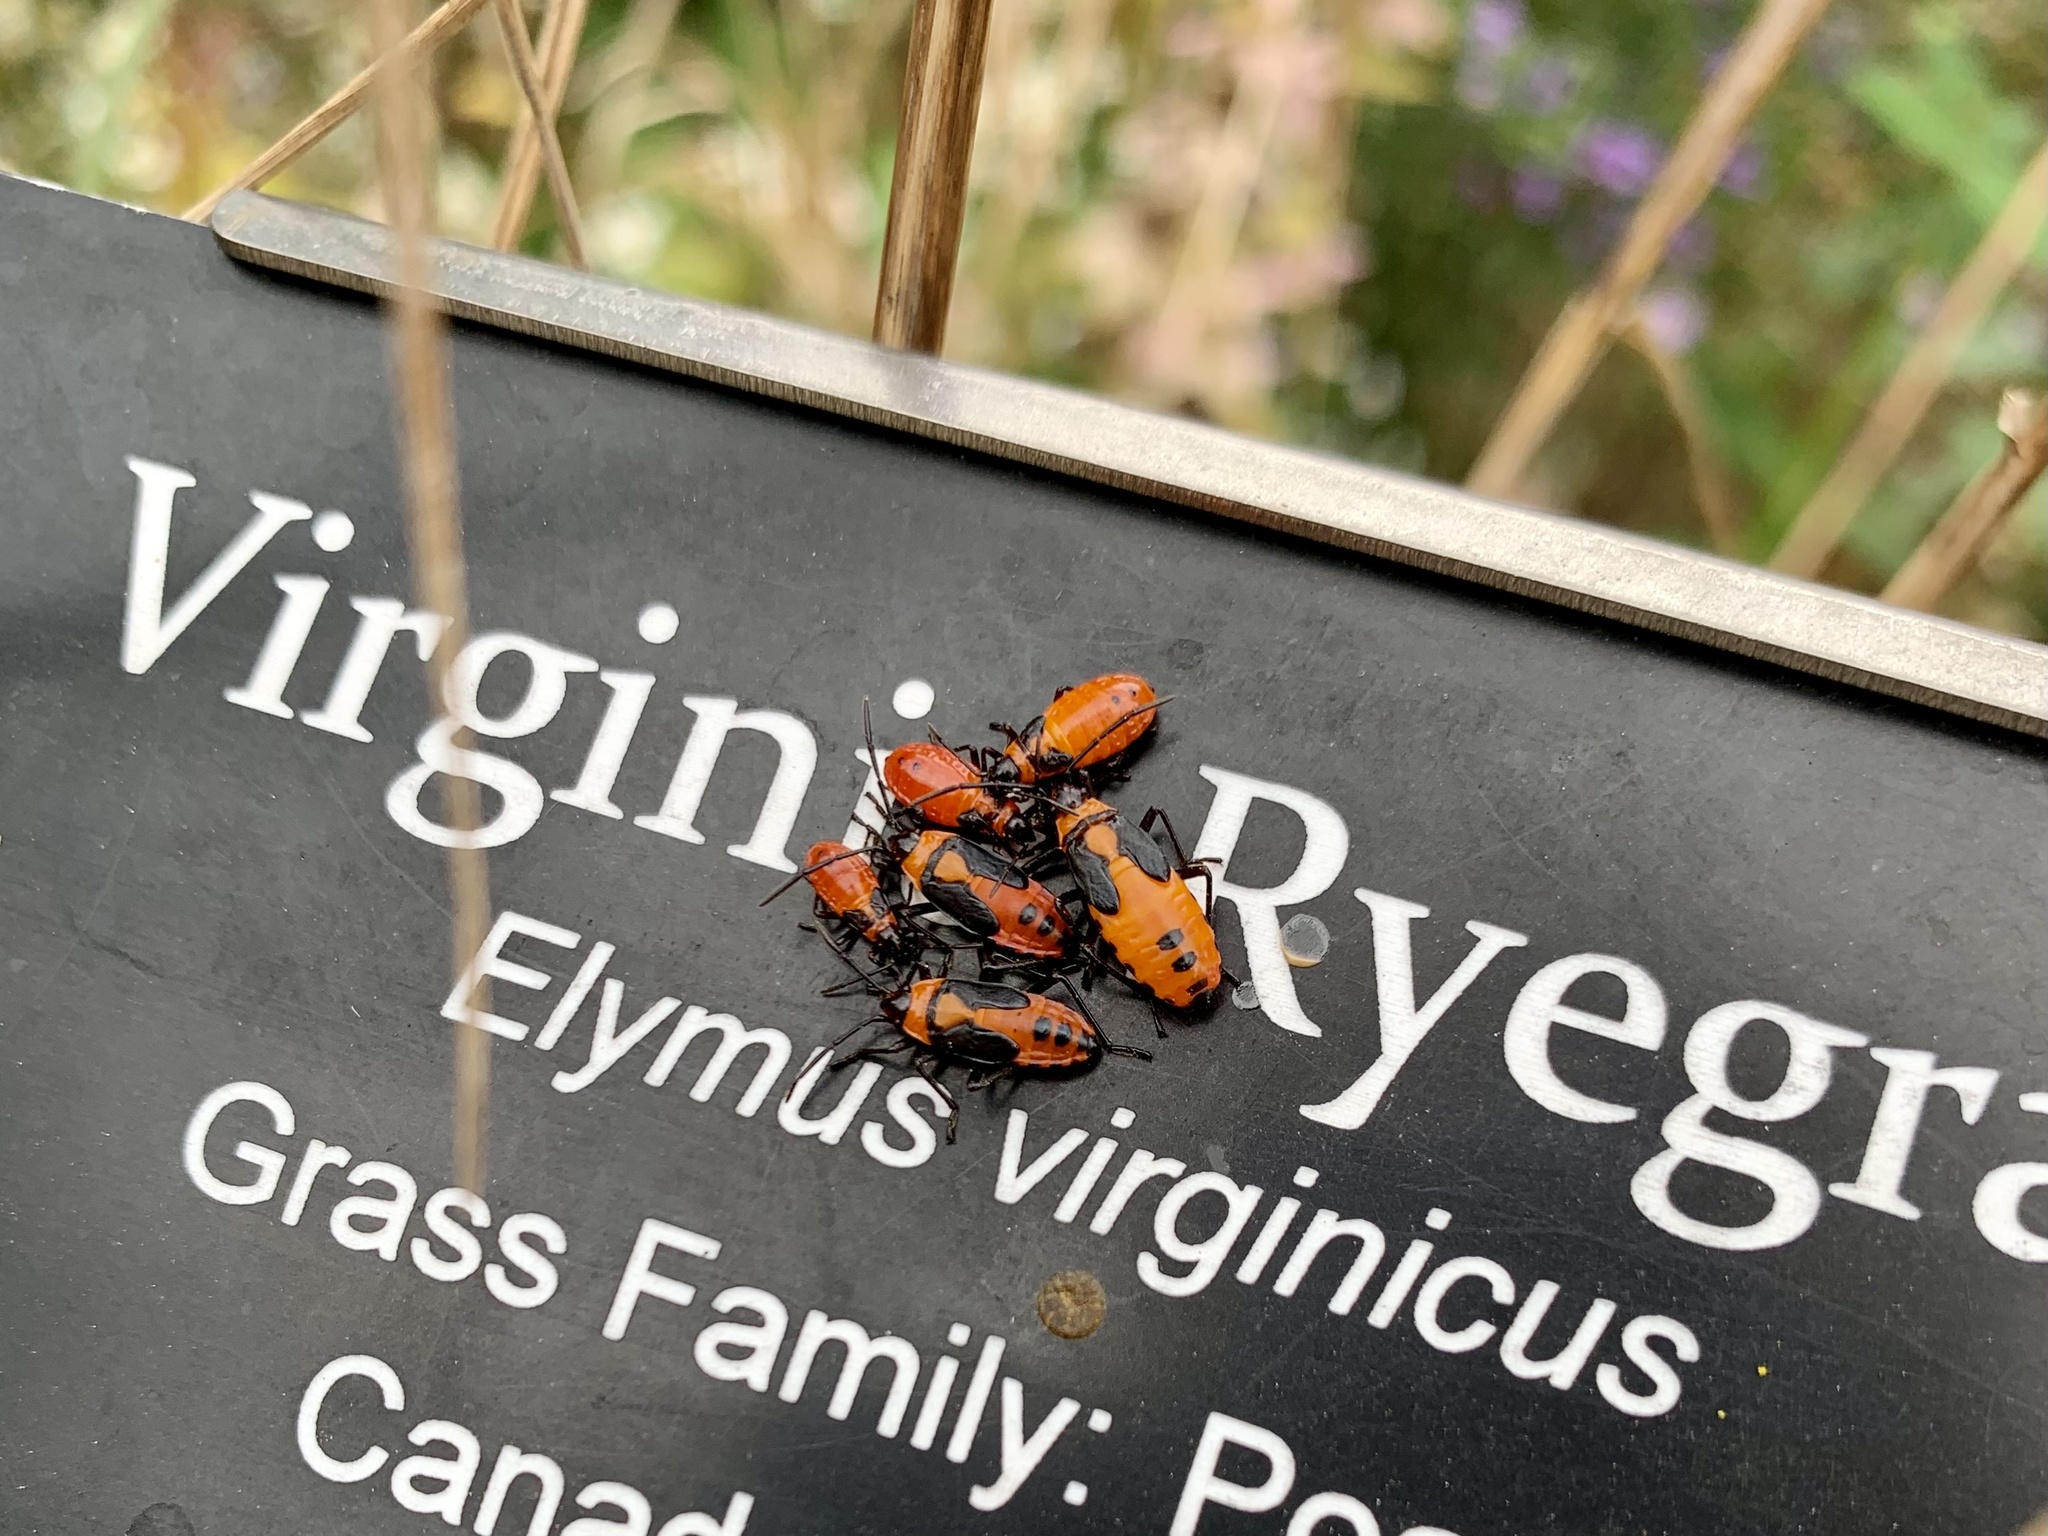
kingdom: Animalia
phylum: Arthropoda
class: Insecta
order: Hemiptera
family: Lygaeidae
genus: Oncopeltus
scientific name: Oncopeltus fasciatus
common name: Large milkweed bug
